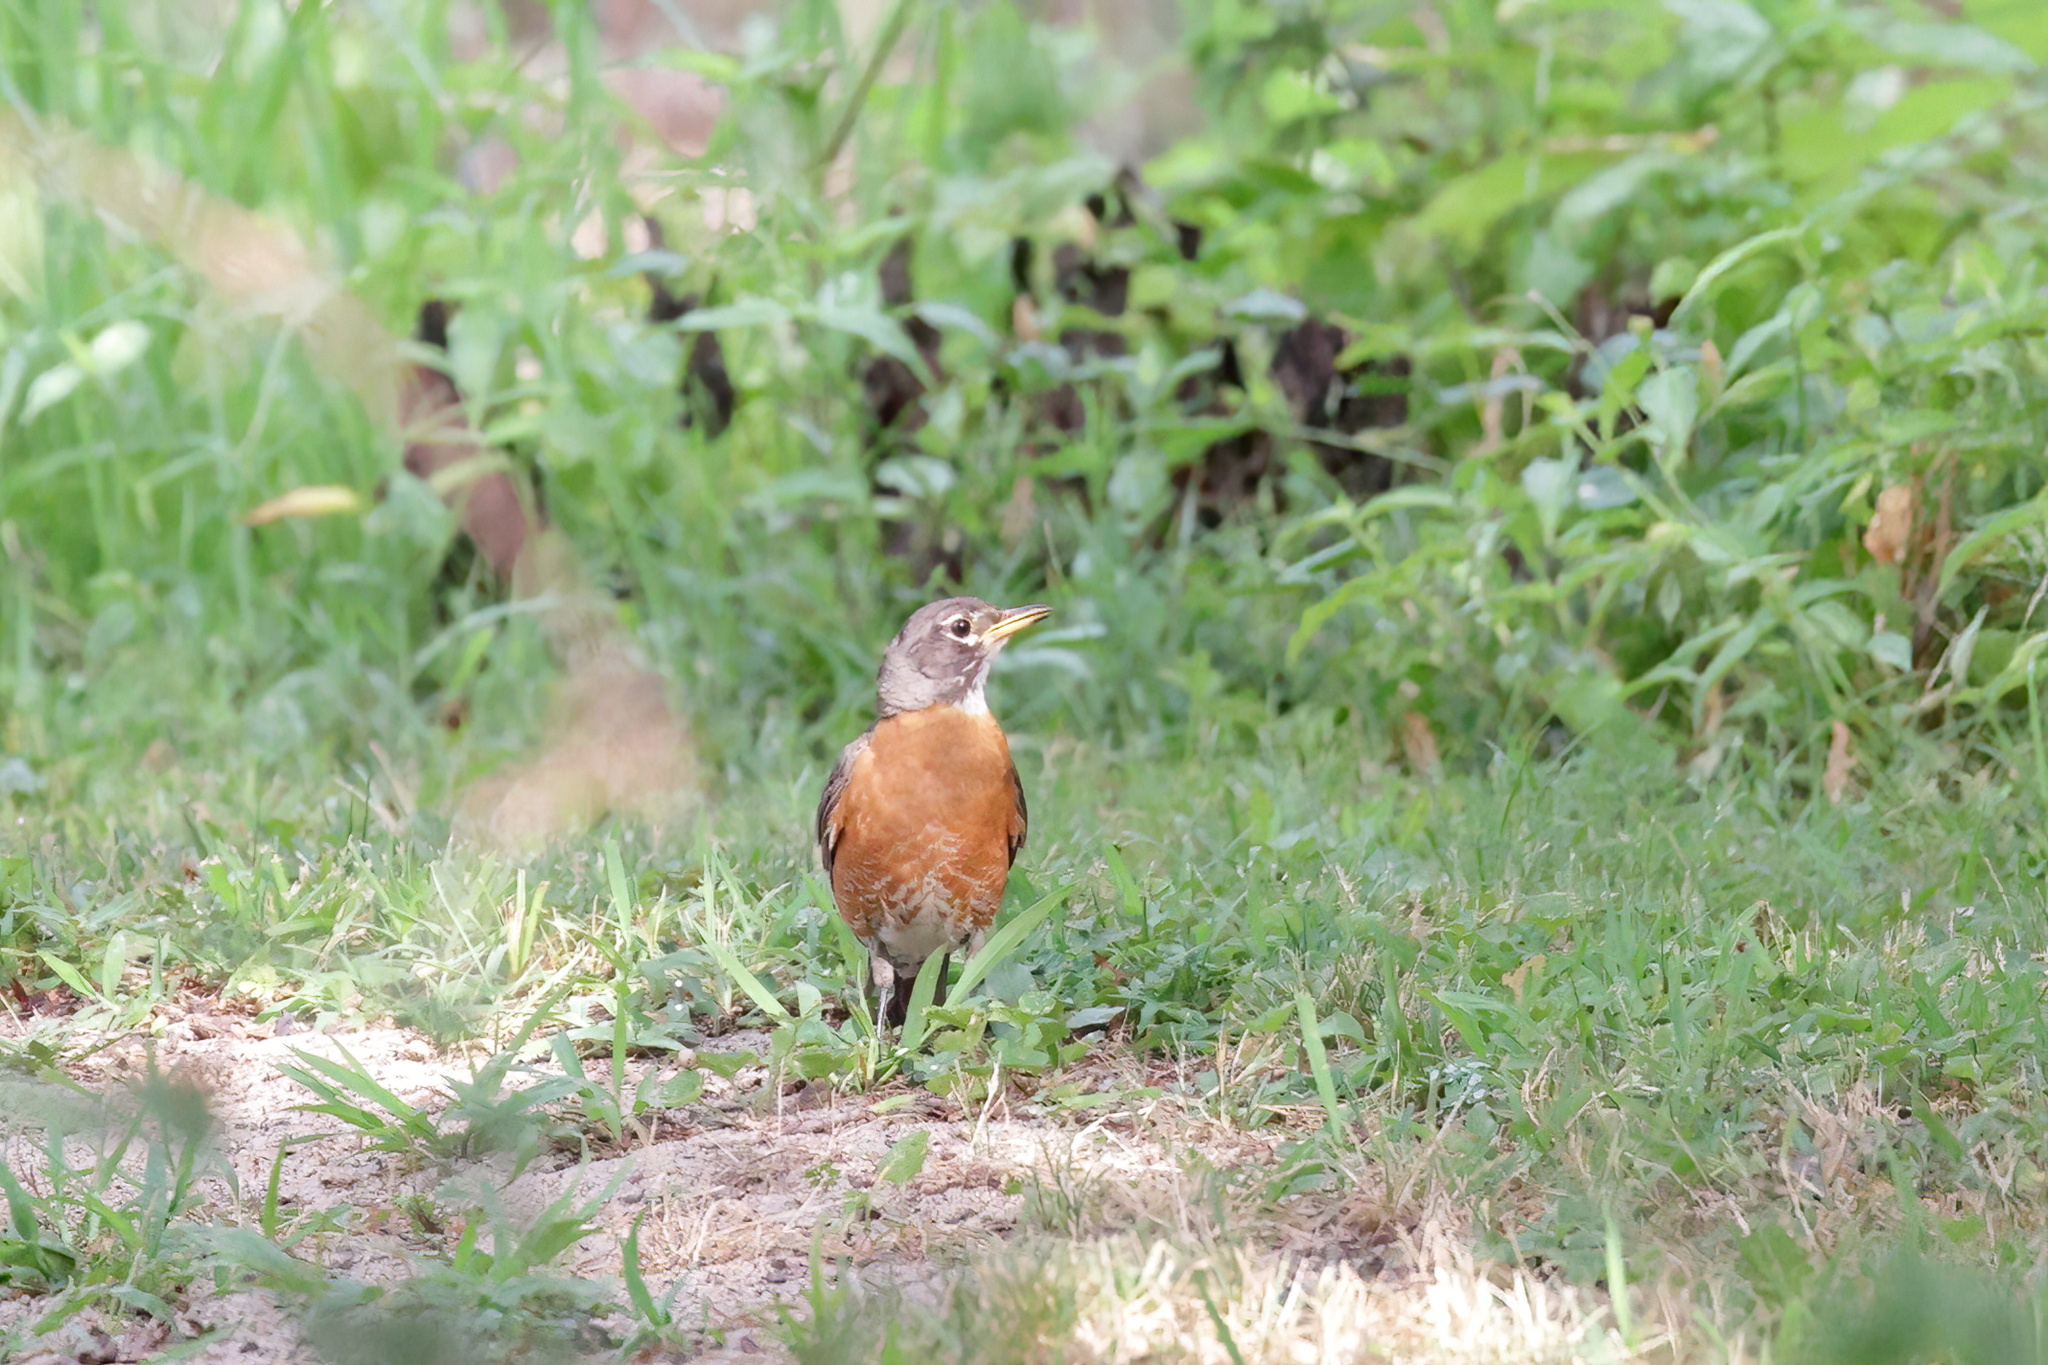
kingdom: Animalia
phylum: Chordata
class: Aves
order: Passeriformes
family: Turdidae
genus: Turdus
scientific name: Turdus migratorius
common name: American robin
